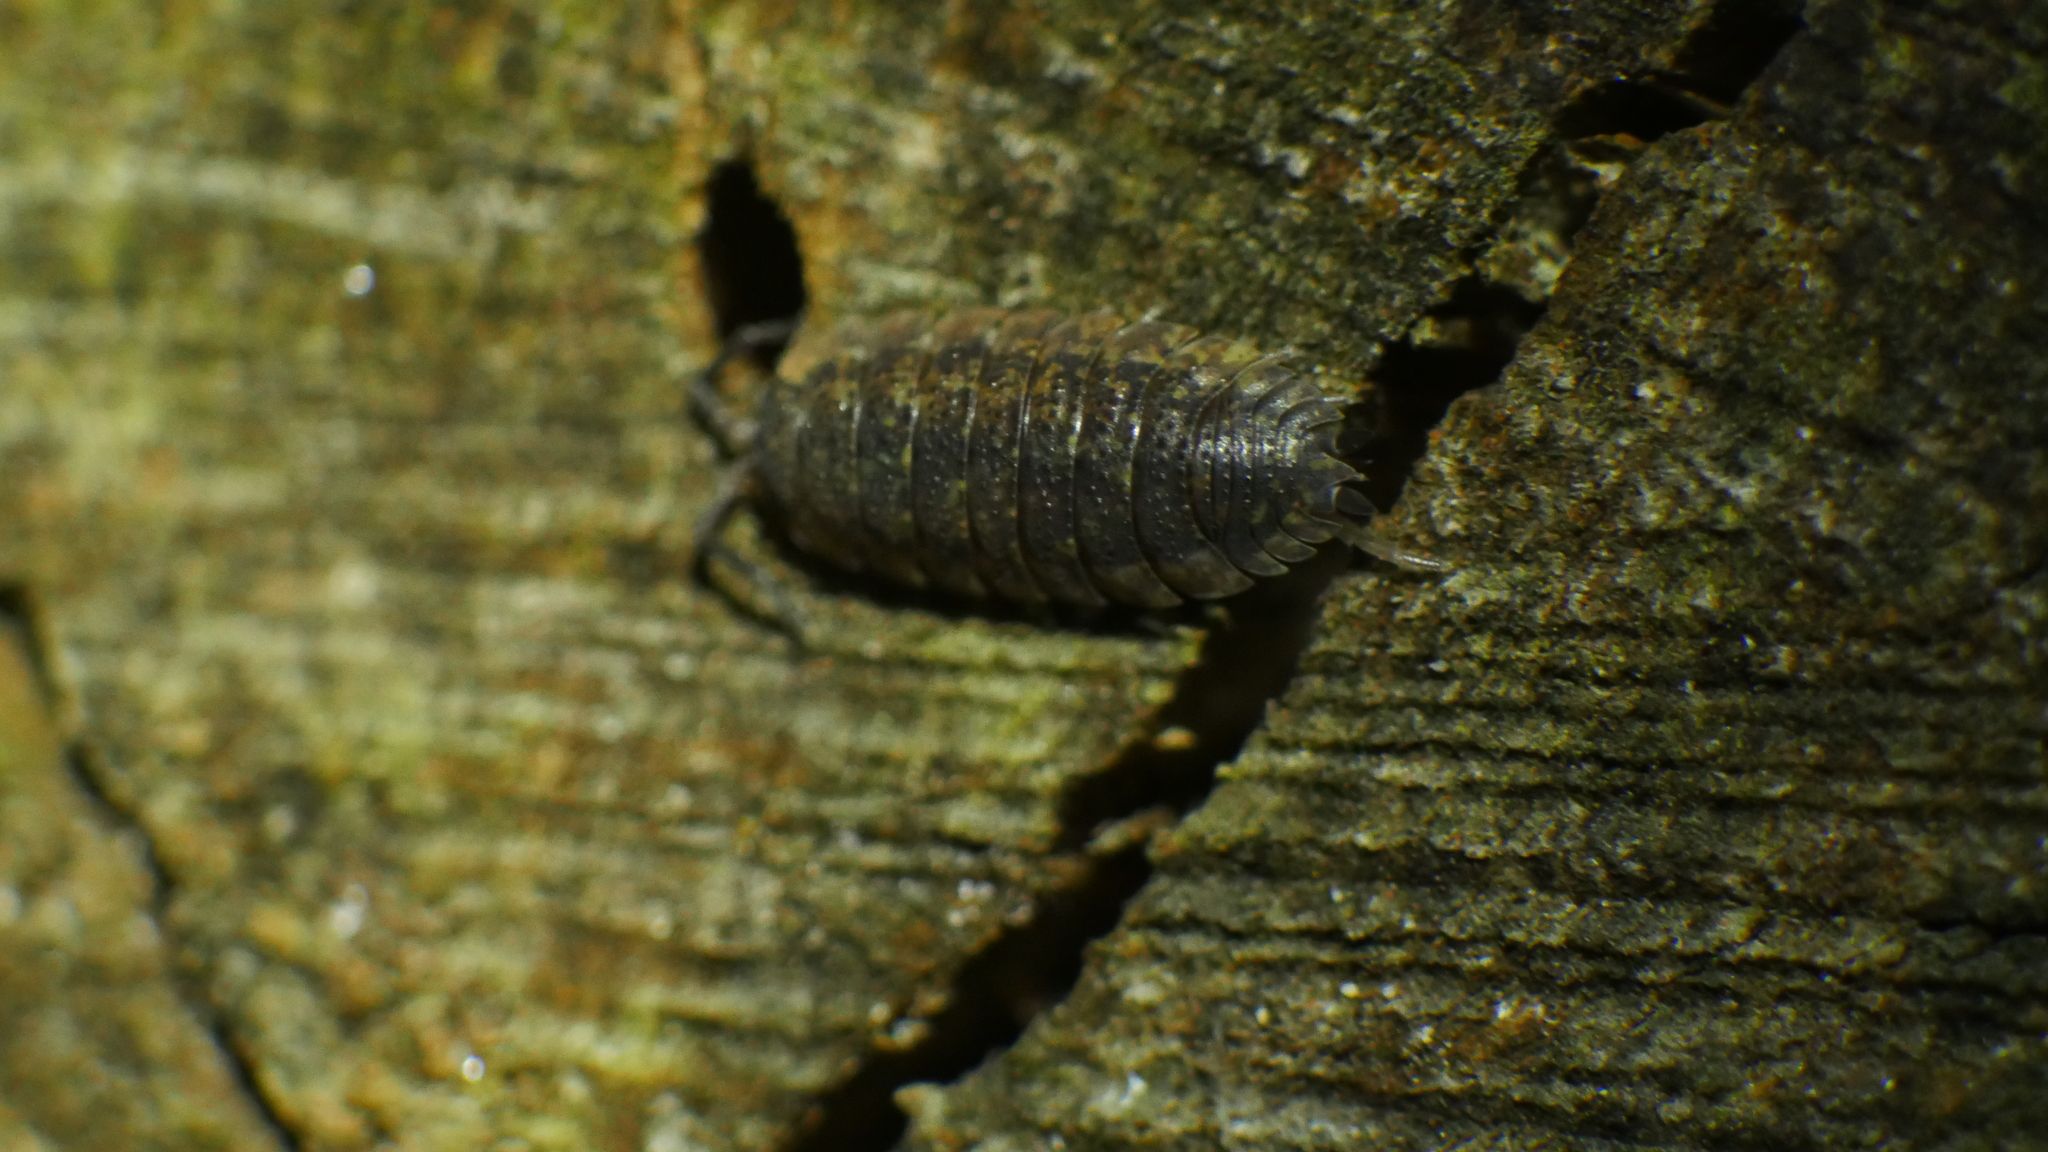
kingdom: Animalia
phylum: Arthropoda
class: Malacostraca
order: Isopoda
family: Porcellionidae
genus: Porcellio
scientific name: Porcellio scaber
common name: Common rough woodlouse
